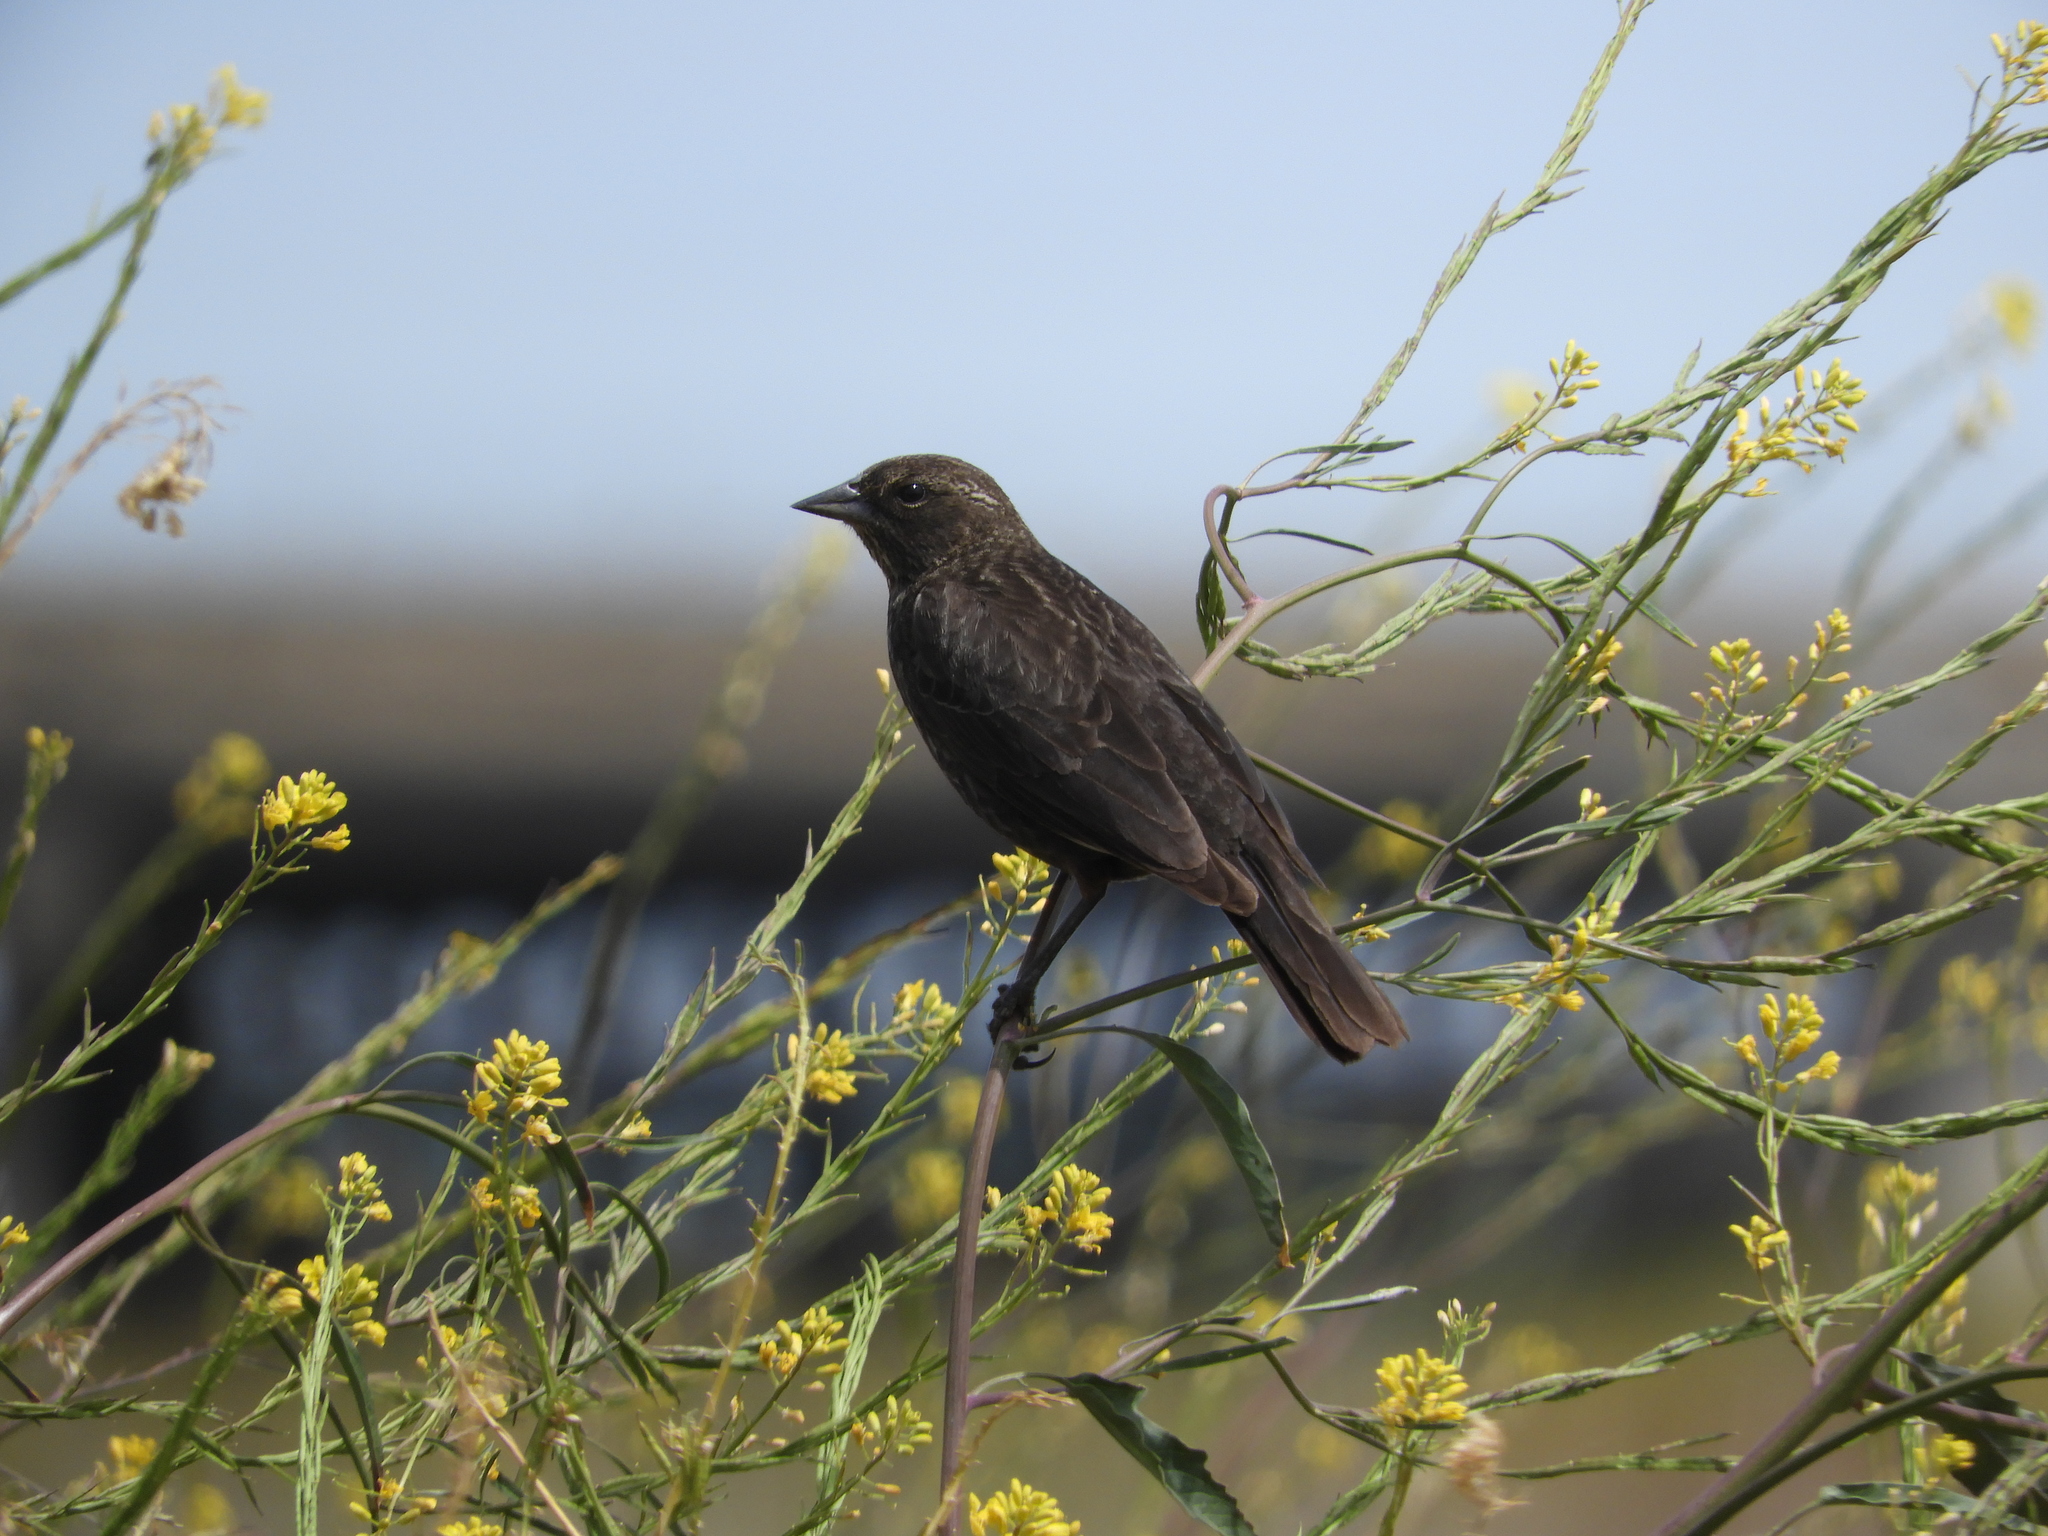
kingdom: Animalia
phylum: Chordata
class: Aves
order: Passeriformes
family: Icteridae
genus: Agelaius
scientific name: Agelaius phoeniceus
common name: Red-winged blackbird
